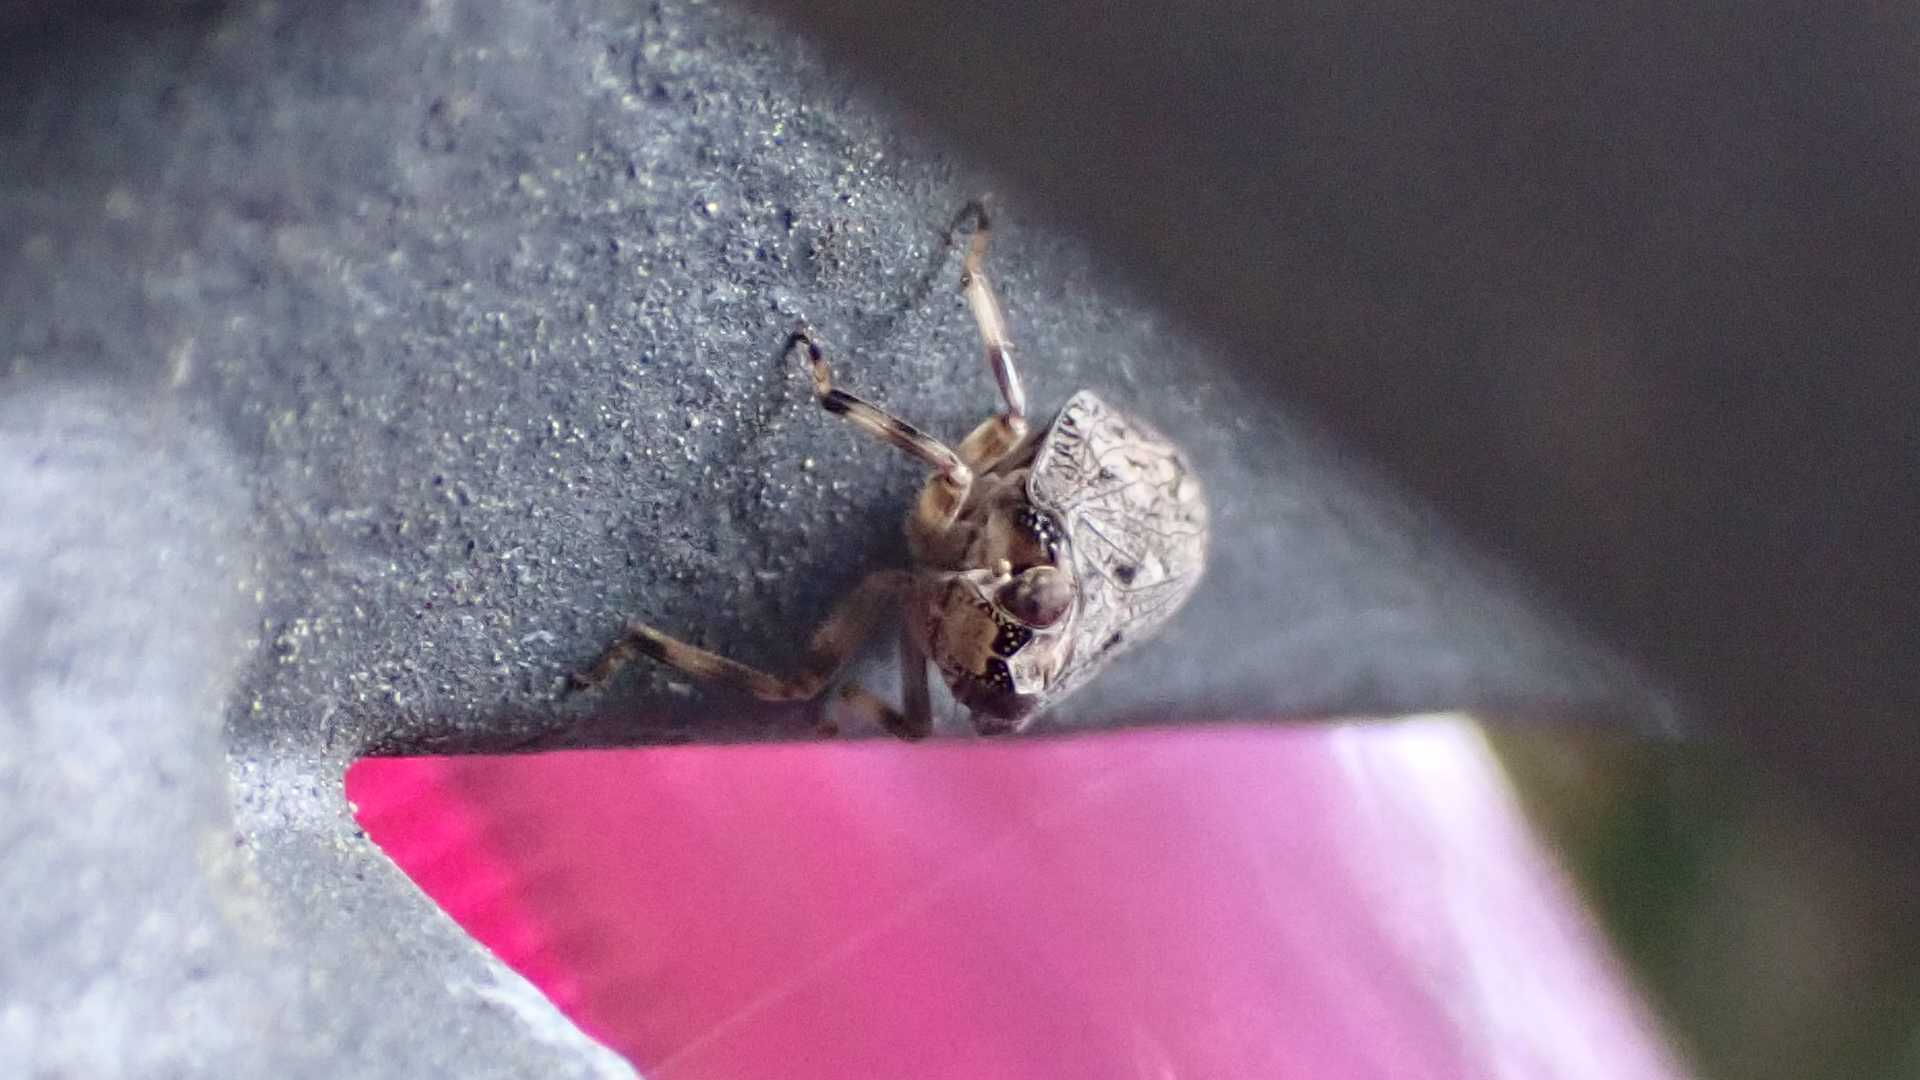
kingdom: Animalia
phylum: Arthropoda
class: Insecta
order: Hemiptera
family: Issidae
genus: Issus
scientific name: Issus coleoptratus
